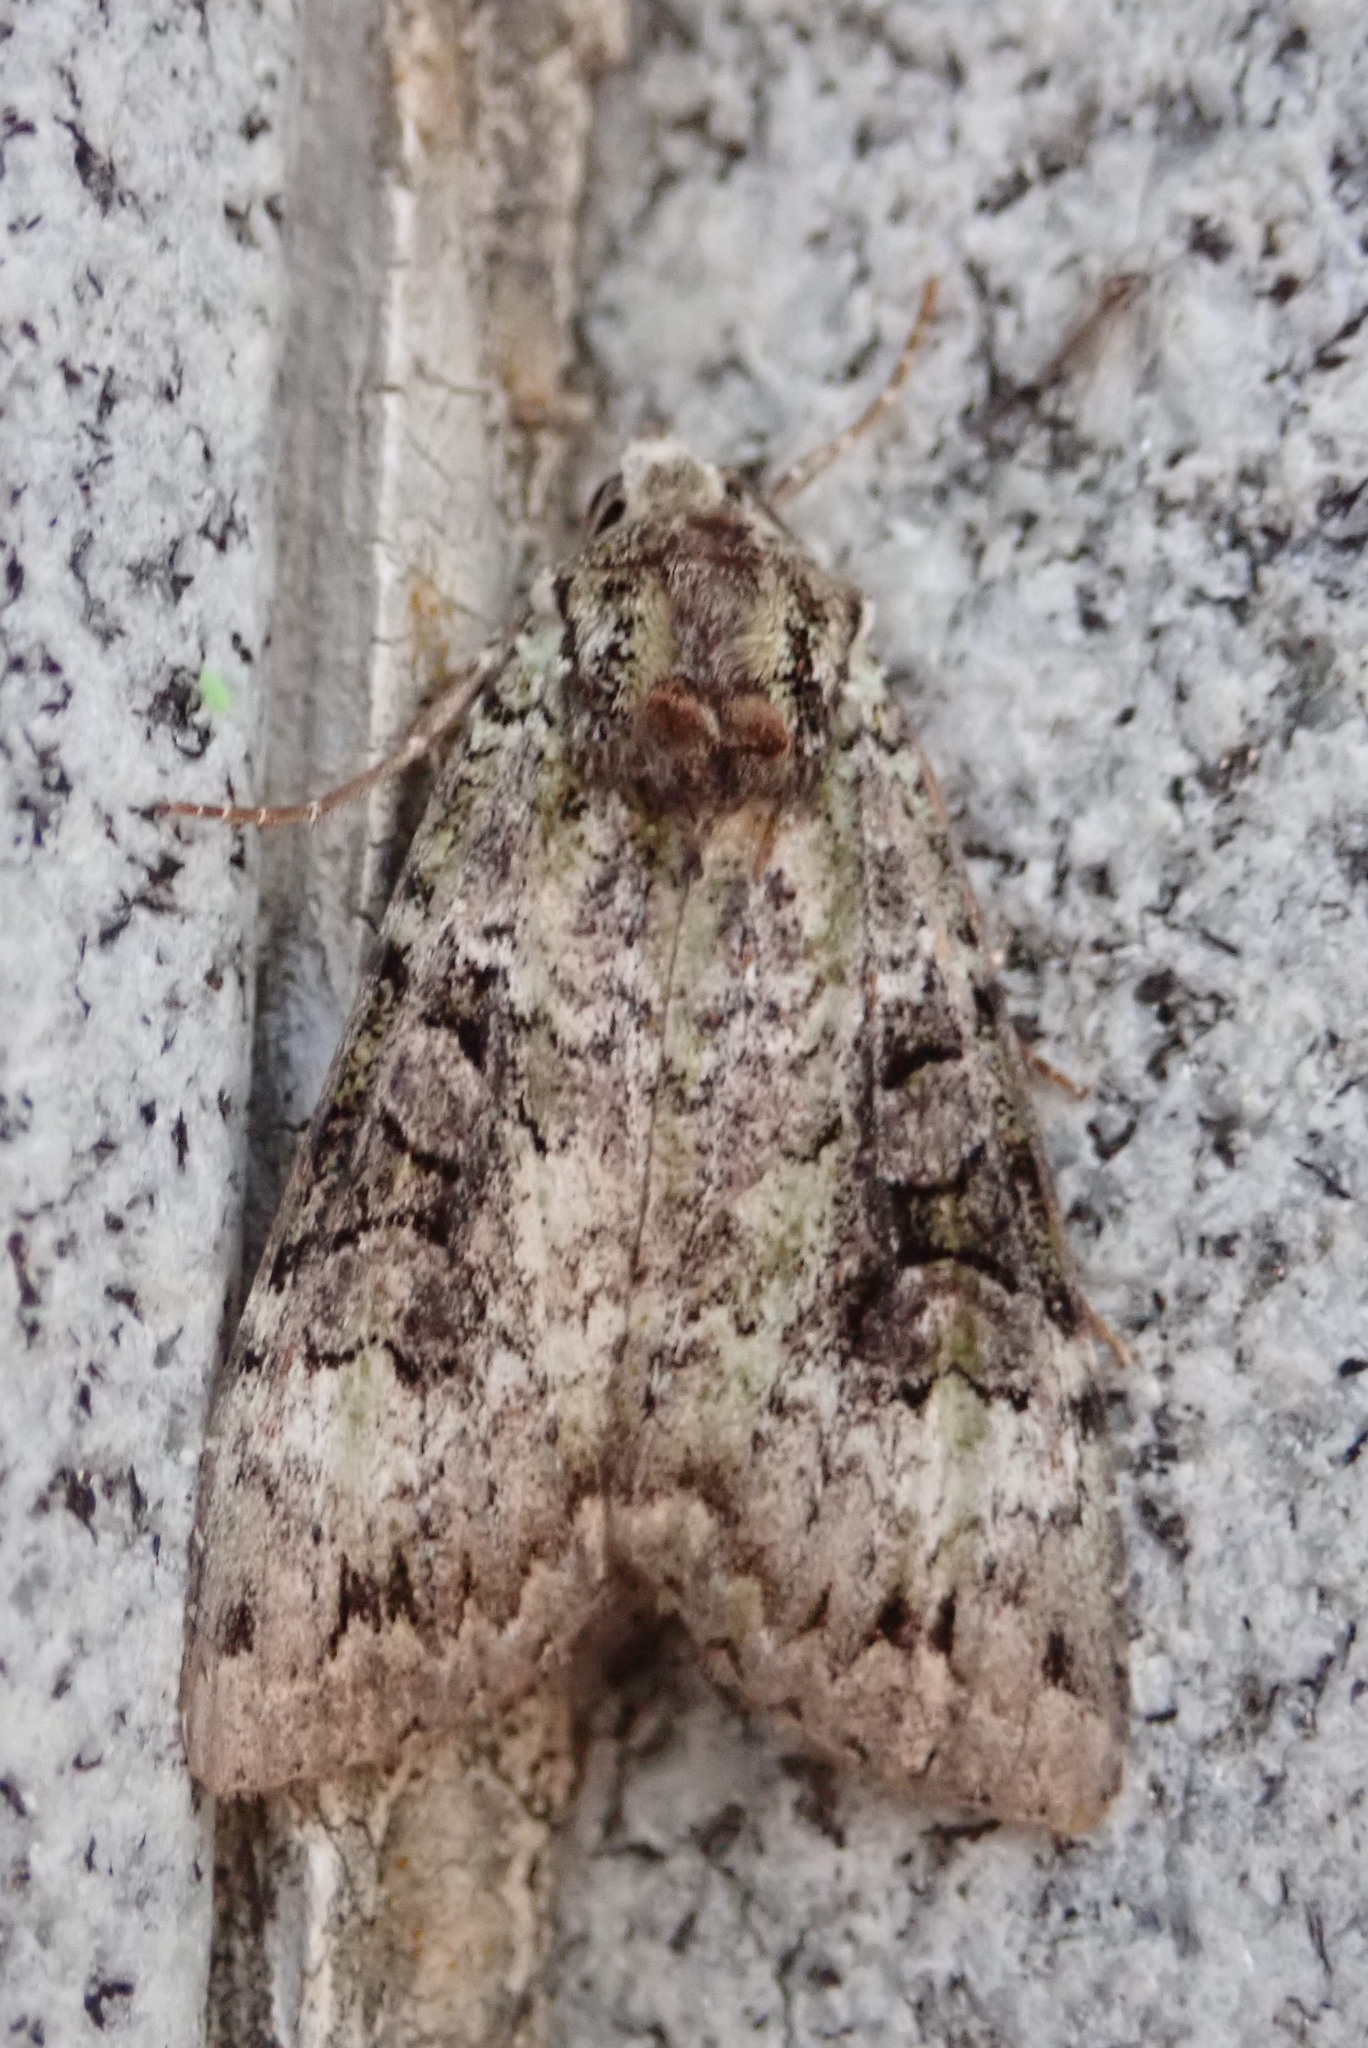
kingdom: Animalia
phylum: Arthropoda
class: Insecta
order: Lepidoptera
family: Noctuidae
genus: Anaplectoides
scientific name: Anaplectoides prasina
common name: Green arches
